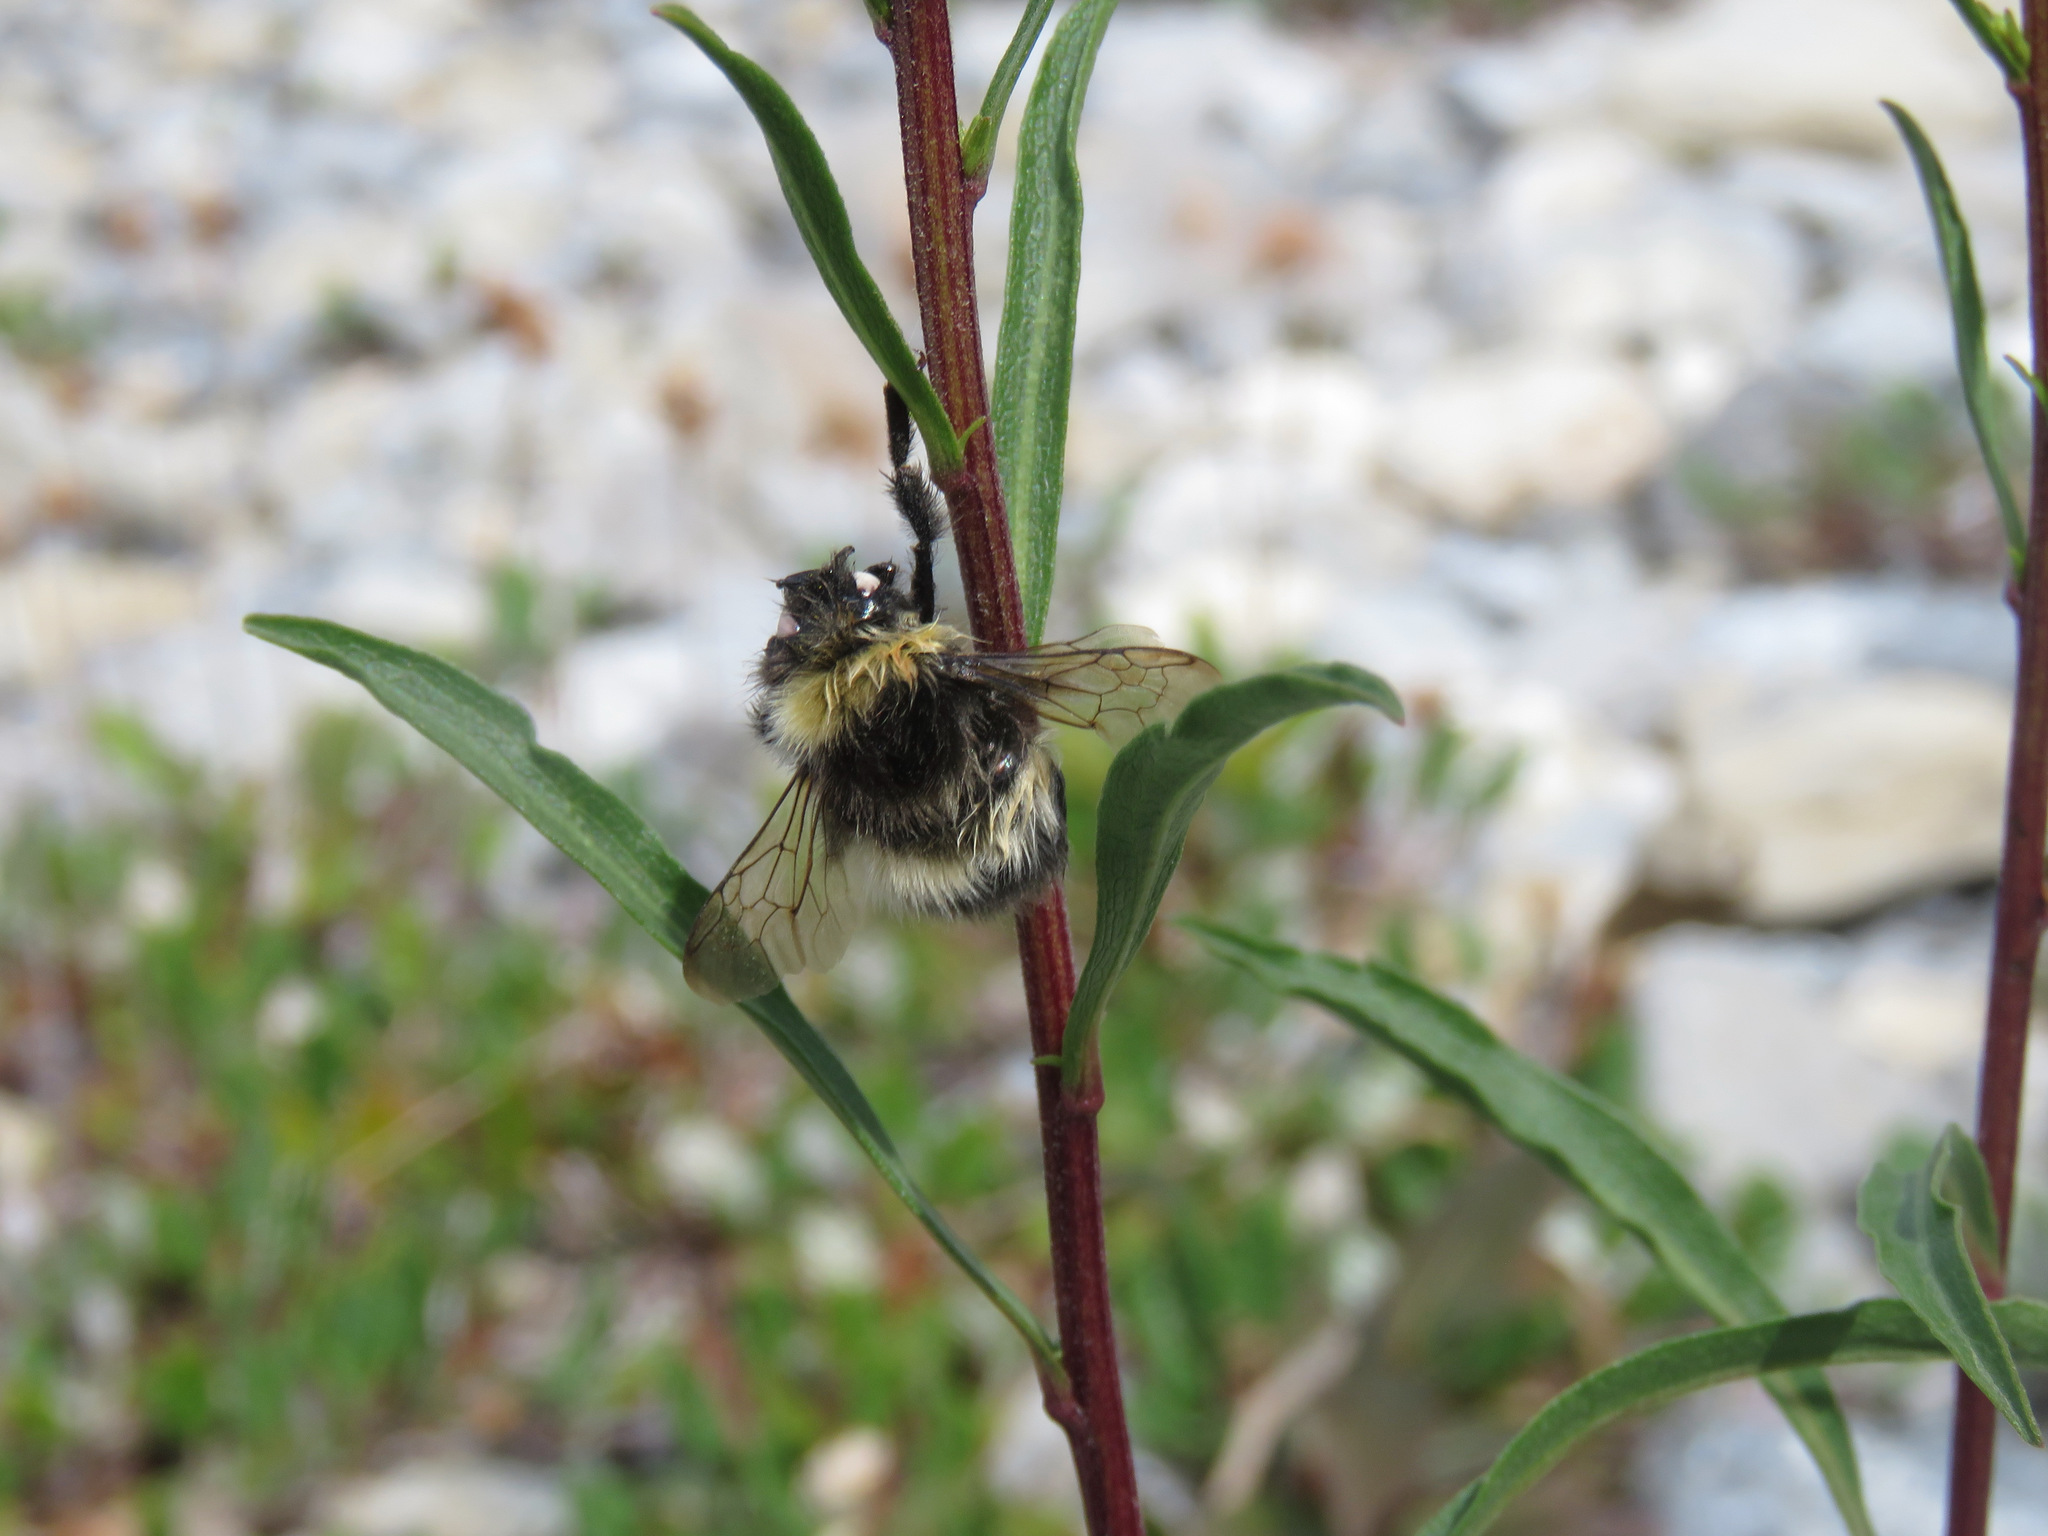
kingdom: Animalia
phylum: Arthropoda
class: Insecta
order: Hymenoptera
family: Apidae
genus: Bombus
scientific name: Bombus cryptarum
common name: Cryptic bumblebee
